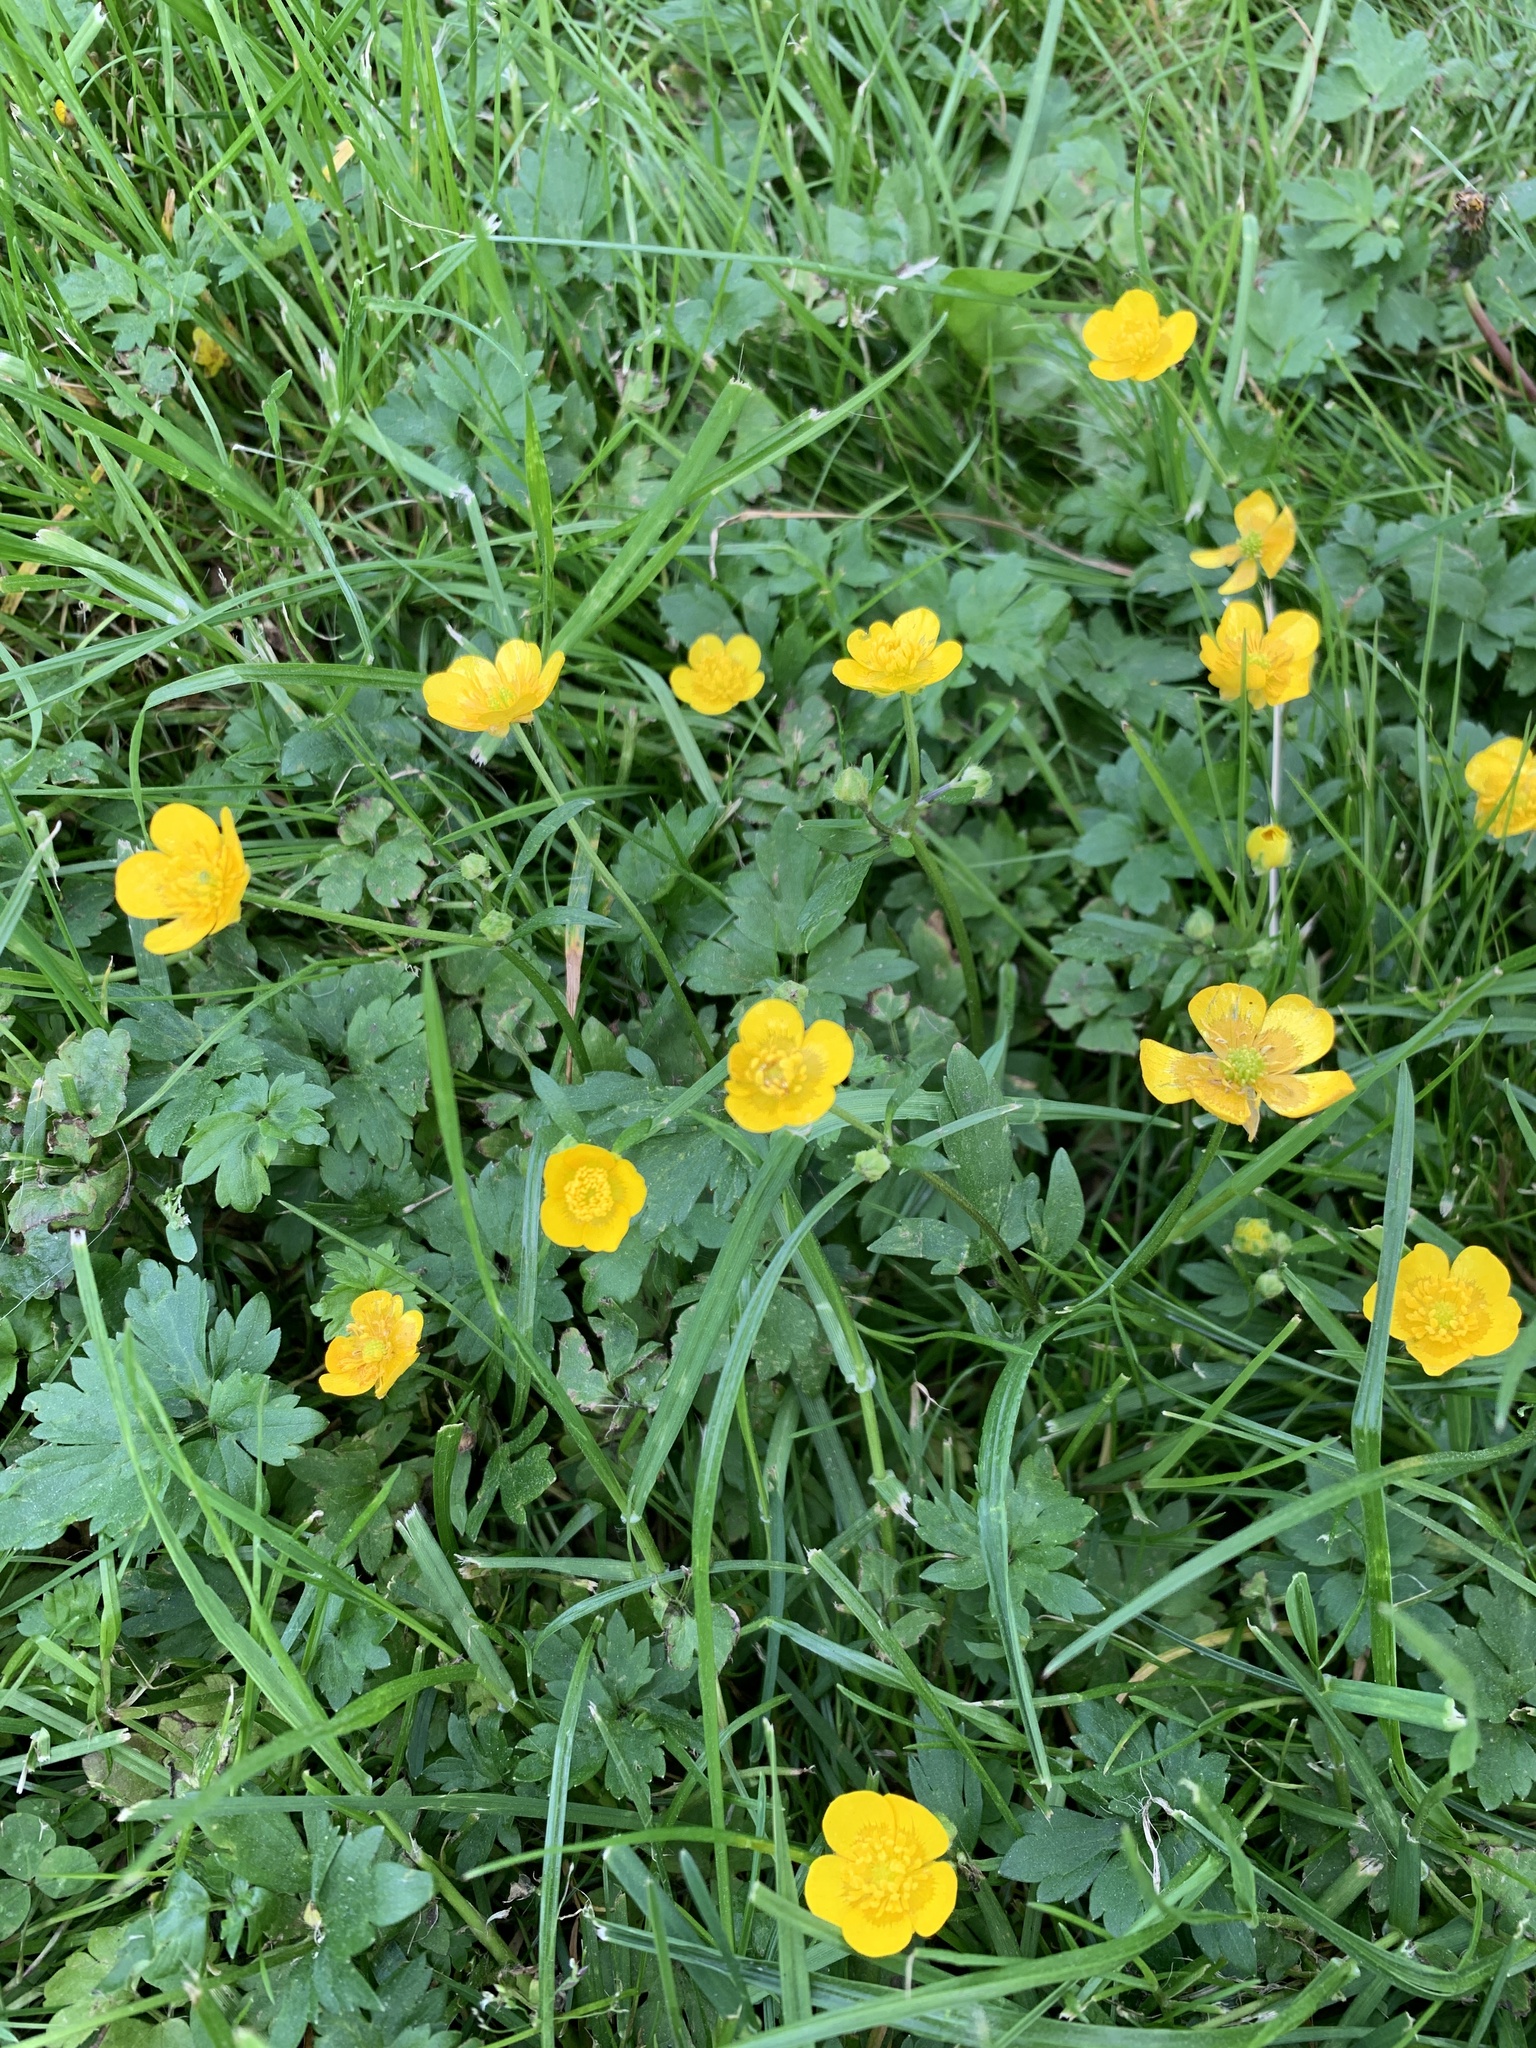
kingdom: Plantae
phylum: Tracheophyta
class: Magnoliopsida
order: Ranunculales
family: Ranunculaceae
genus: Ranunculus
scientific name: Ranunculus repens
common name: Creeping buttercup
